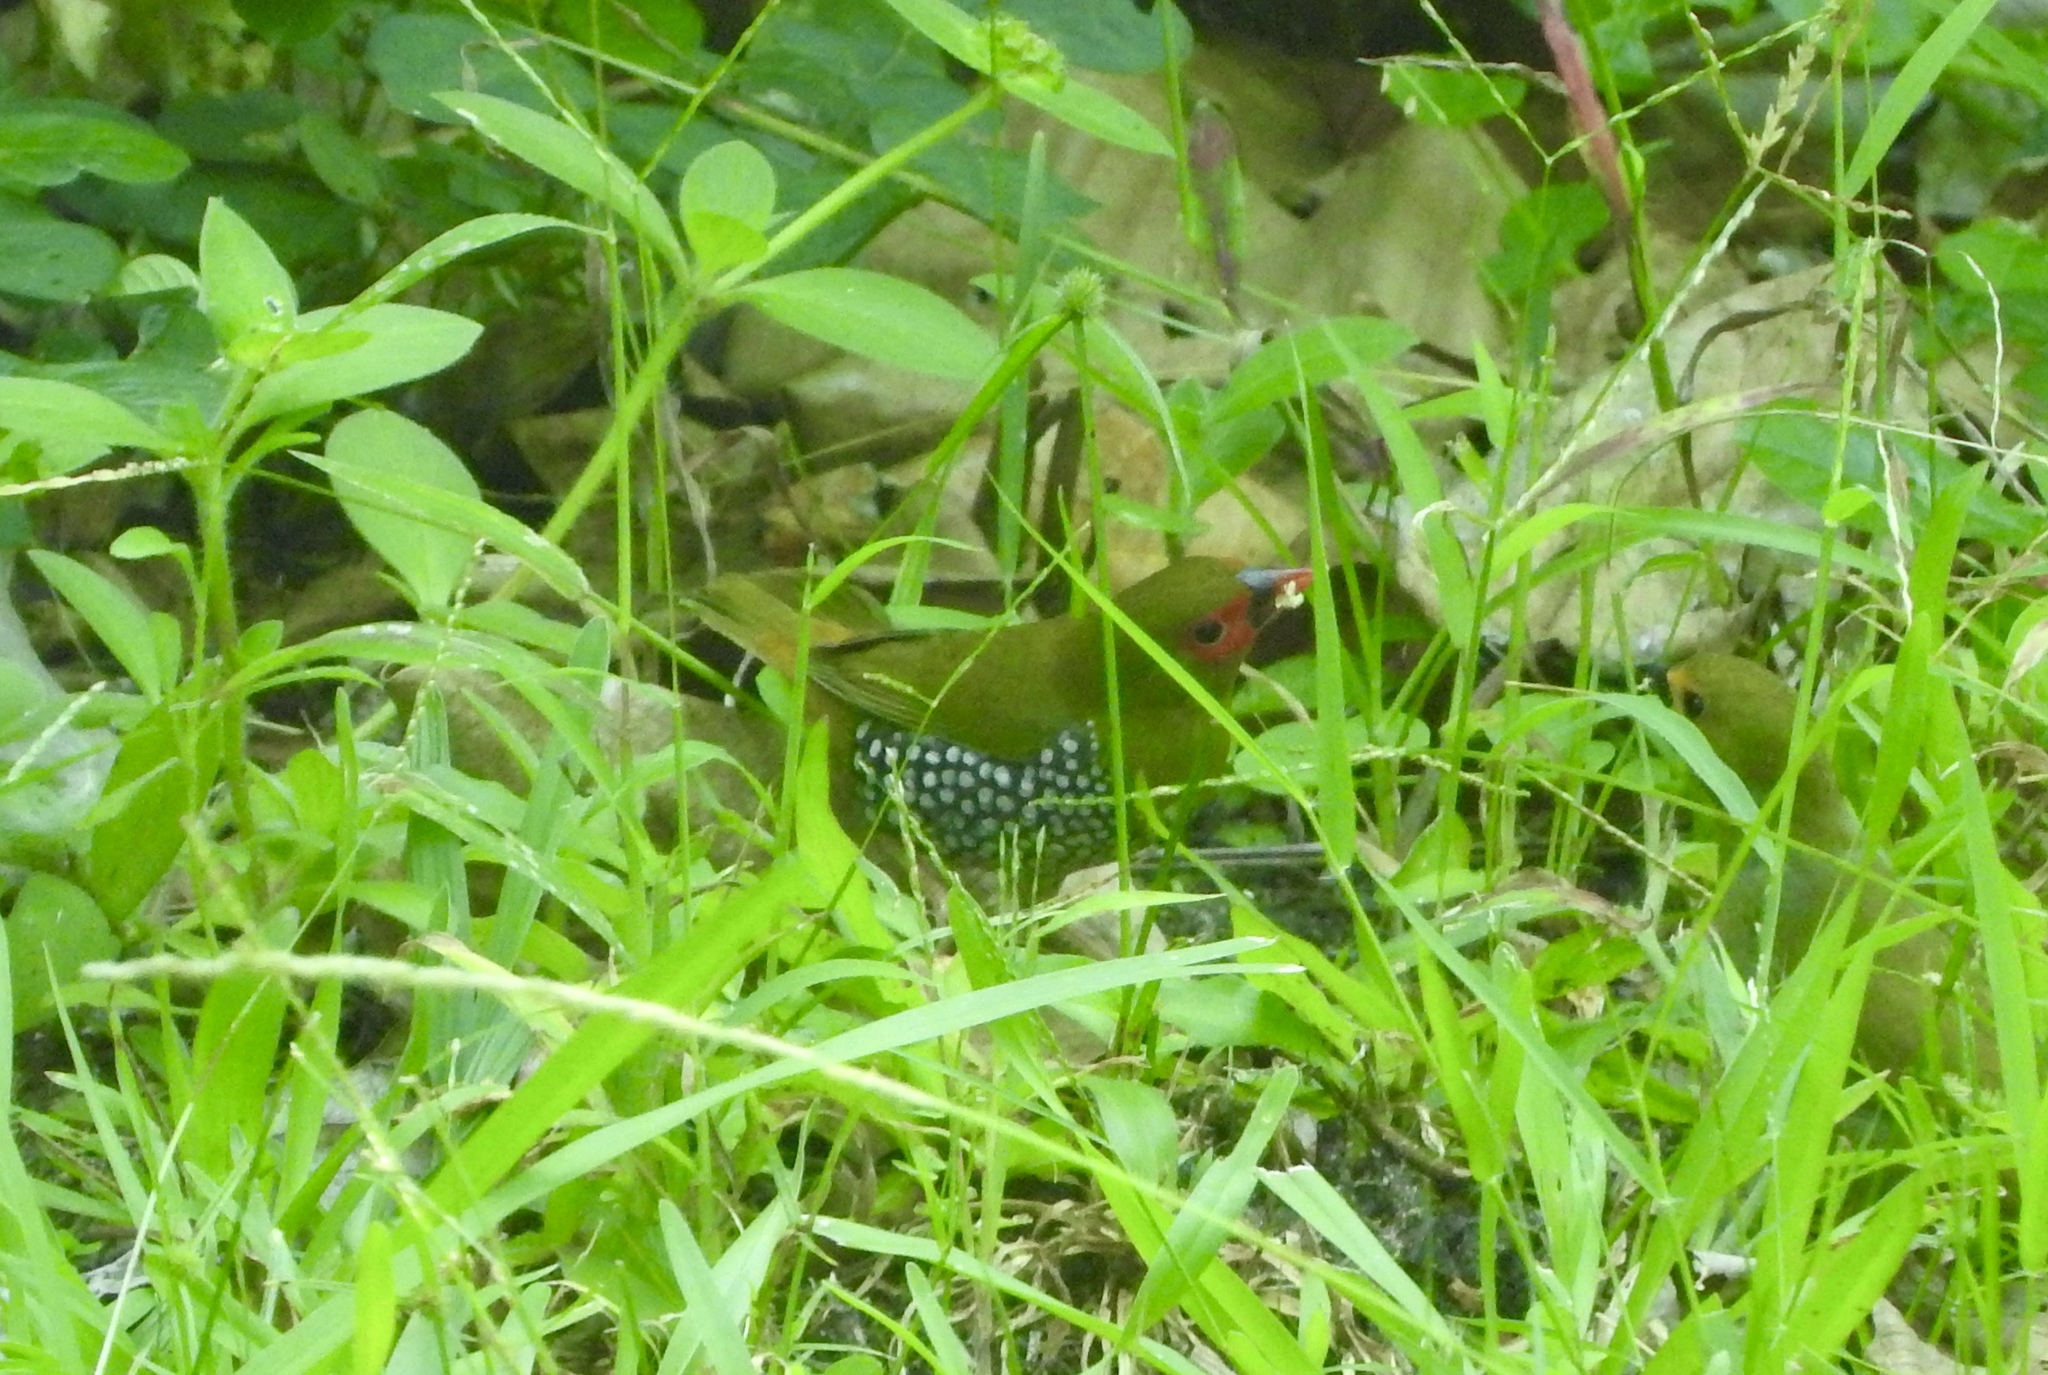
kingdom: Animalia
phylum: Chordata
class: Aves
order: Passeriformes
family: Estrildidae
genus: Mandingoa
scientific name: Mandingoa nitidula
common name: Green twinspot
